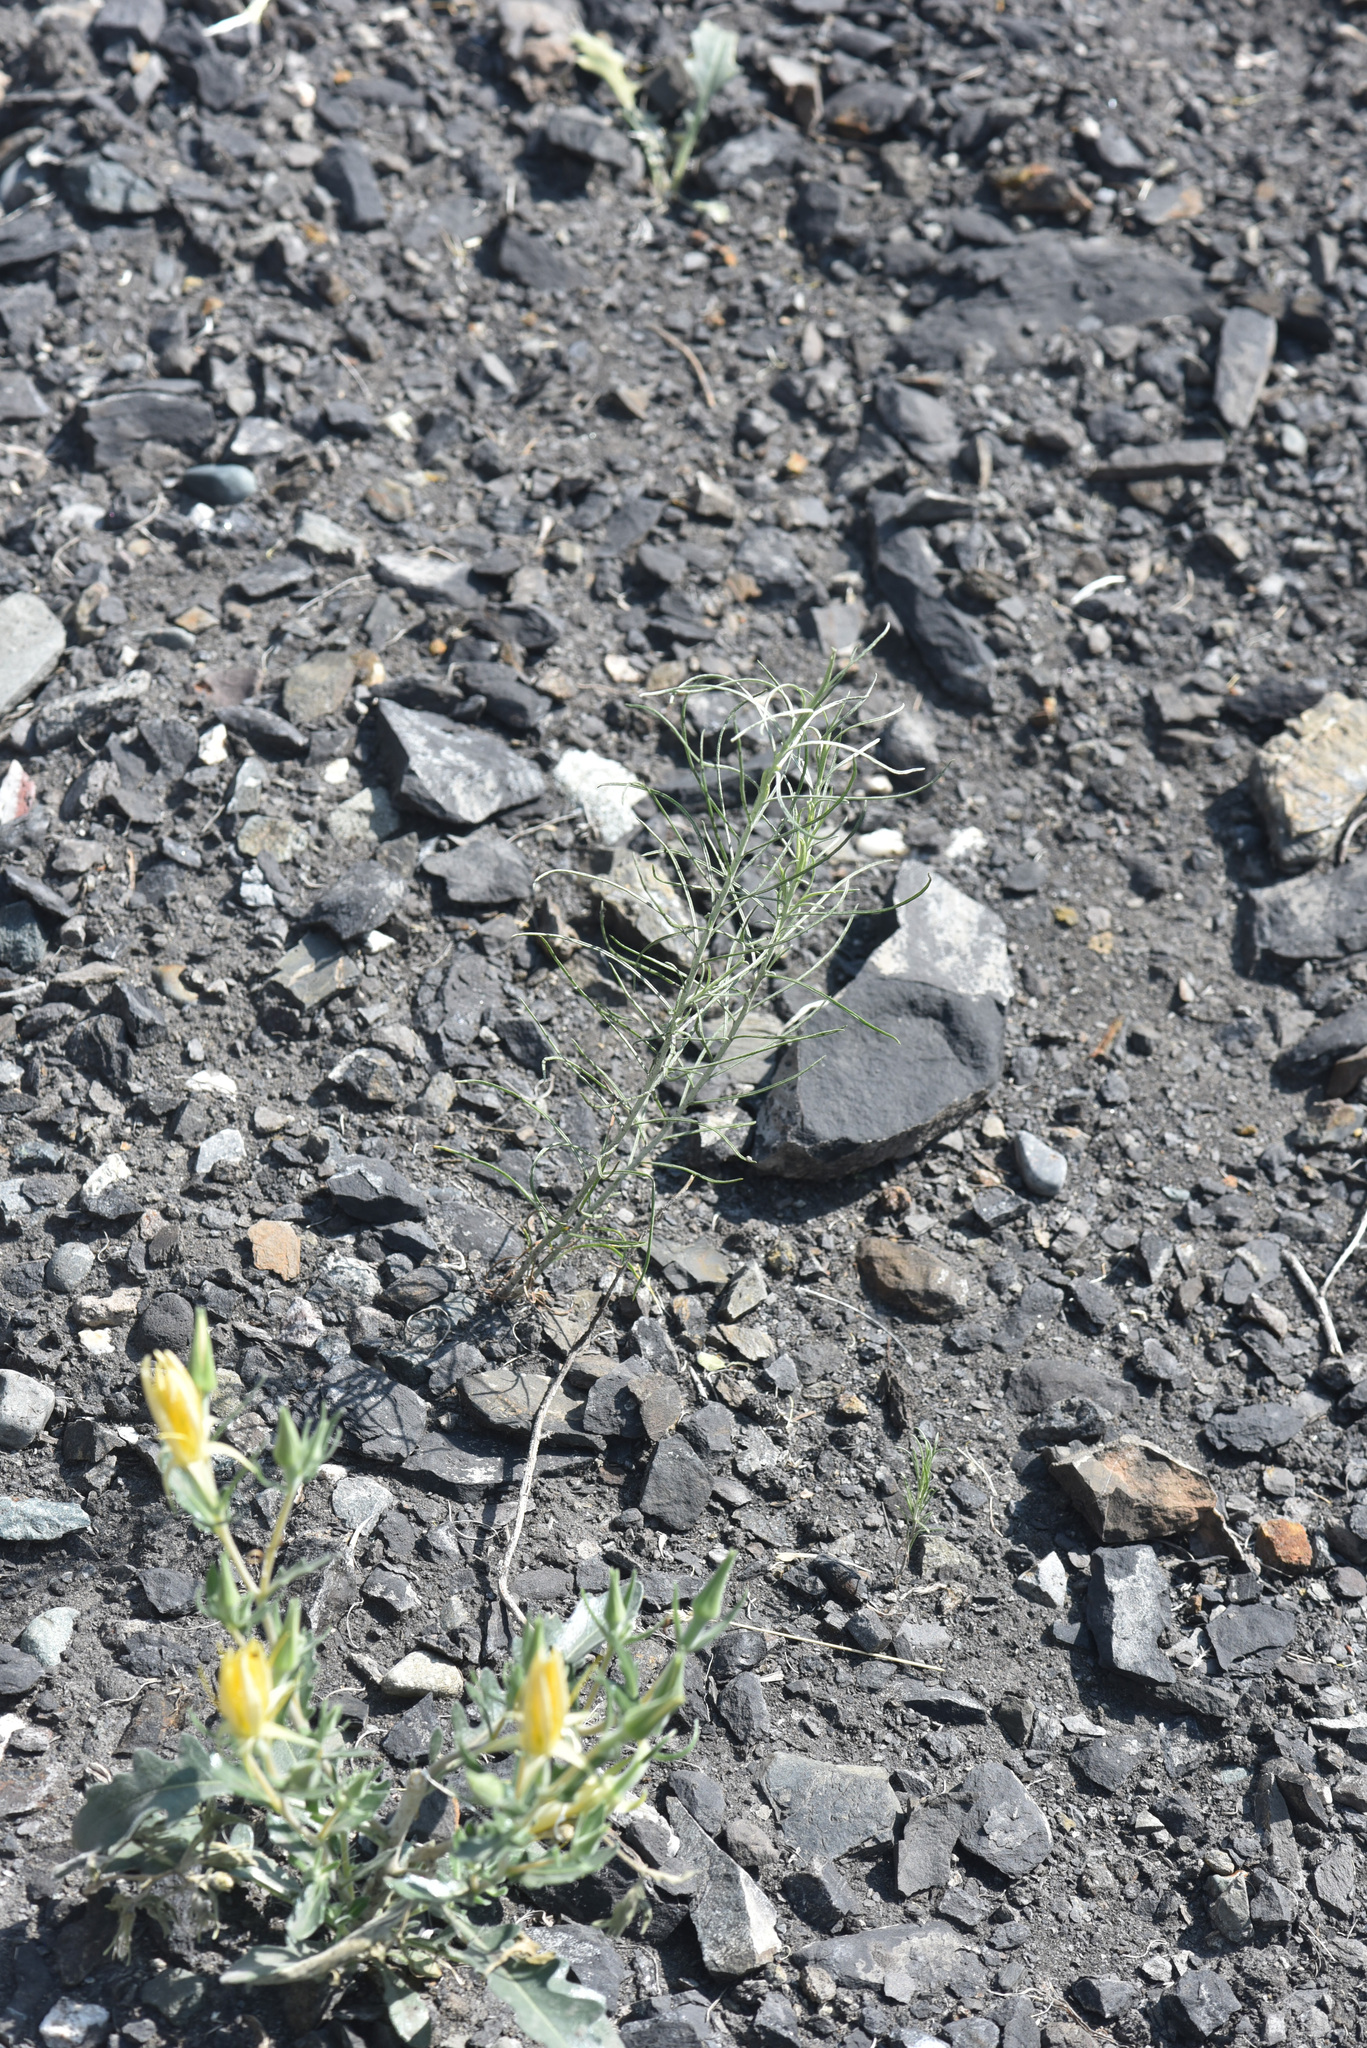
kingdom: Plantae
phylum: Tracheophyta
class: Magnoliopsida
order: Asterales
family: Asteraceae
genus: Ericameria
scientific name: Ericameria nauseosa
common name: Rubber rabbitbrush
